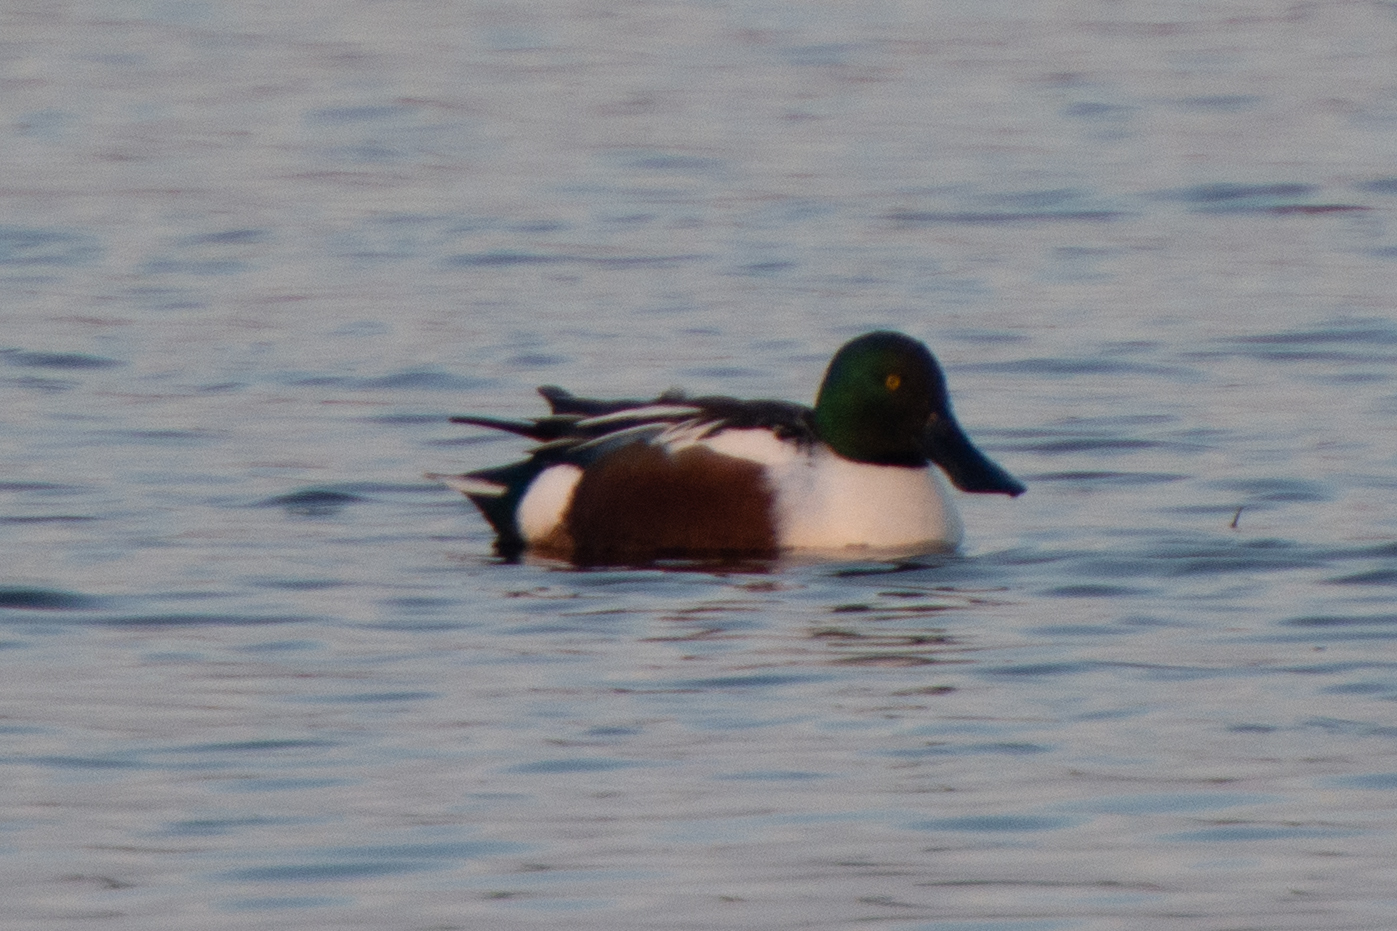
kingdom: Animalia
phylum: Chordata
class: Aves
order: Anseriformes
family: Anatidae
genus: Spatula
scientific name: Spatula clypeata
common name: Northern shoveler
